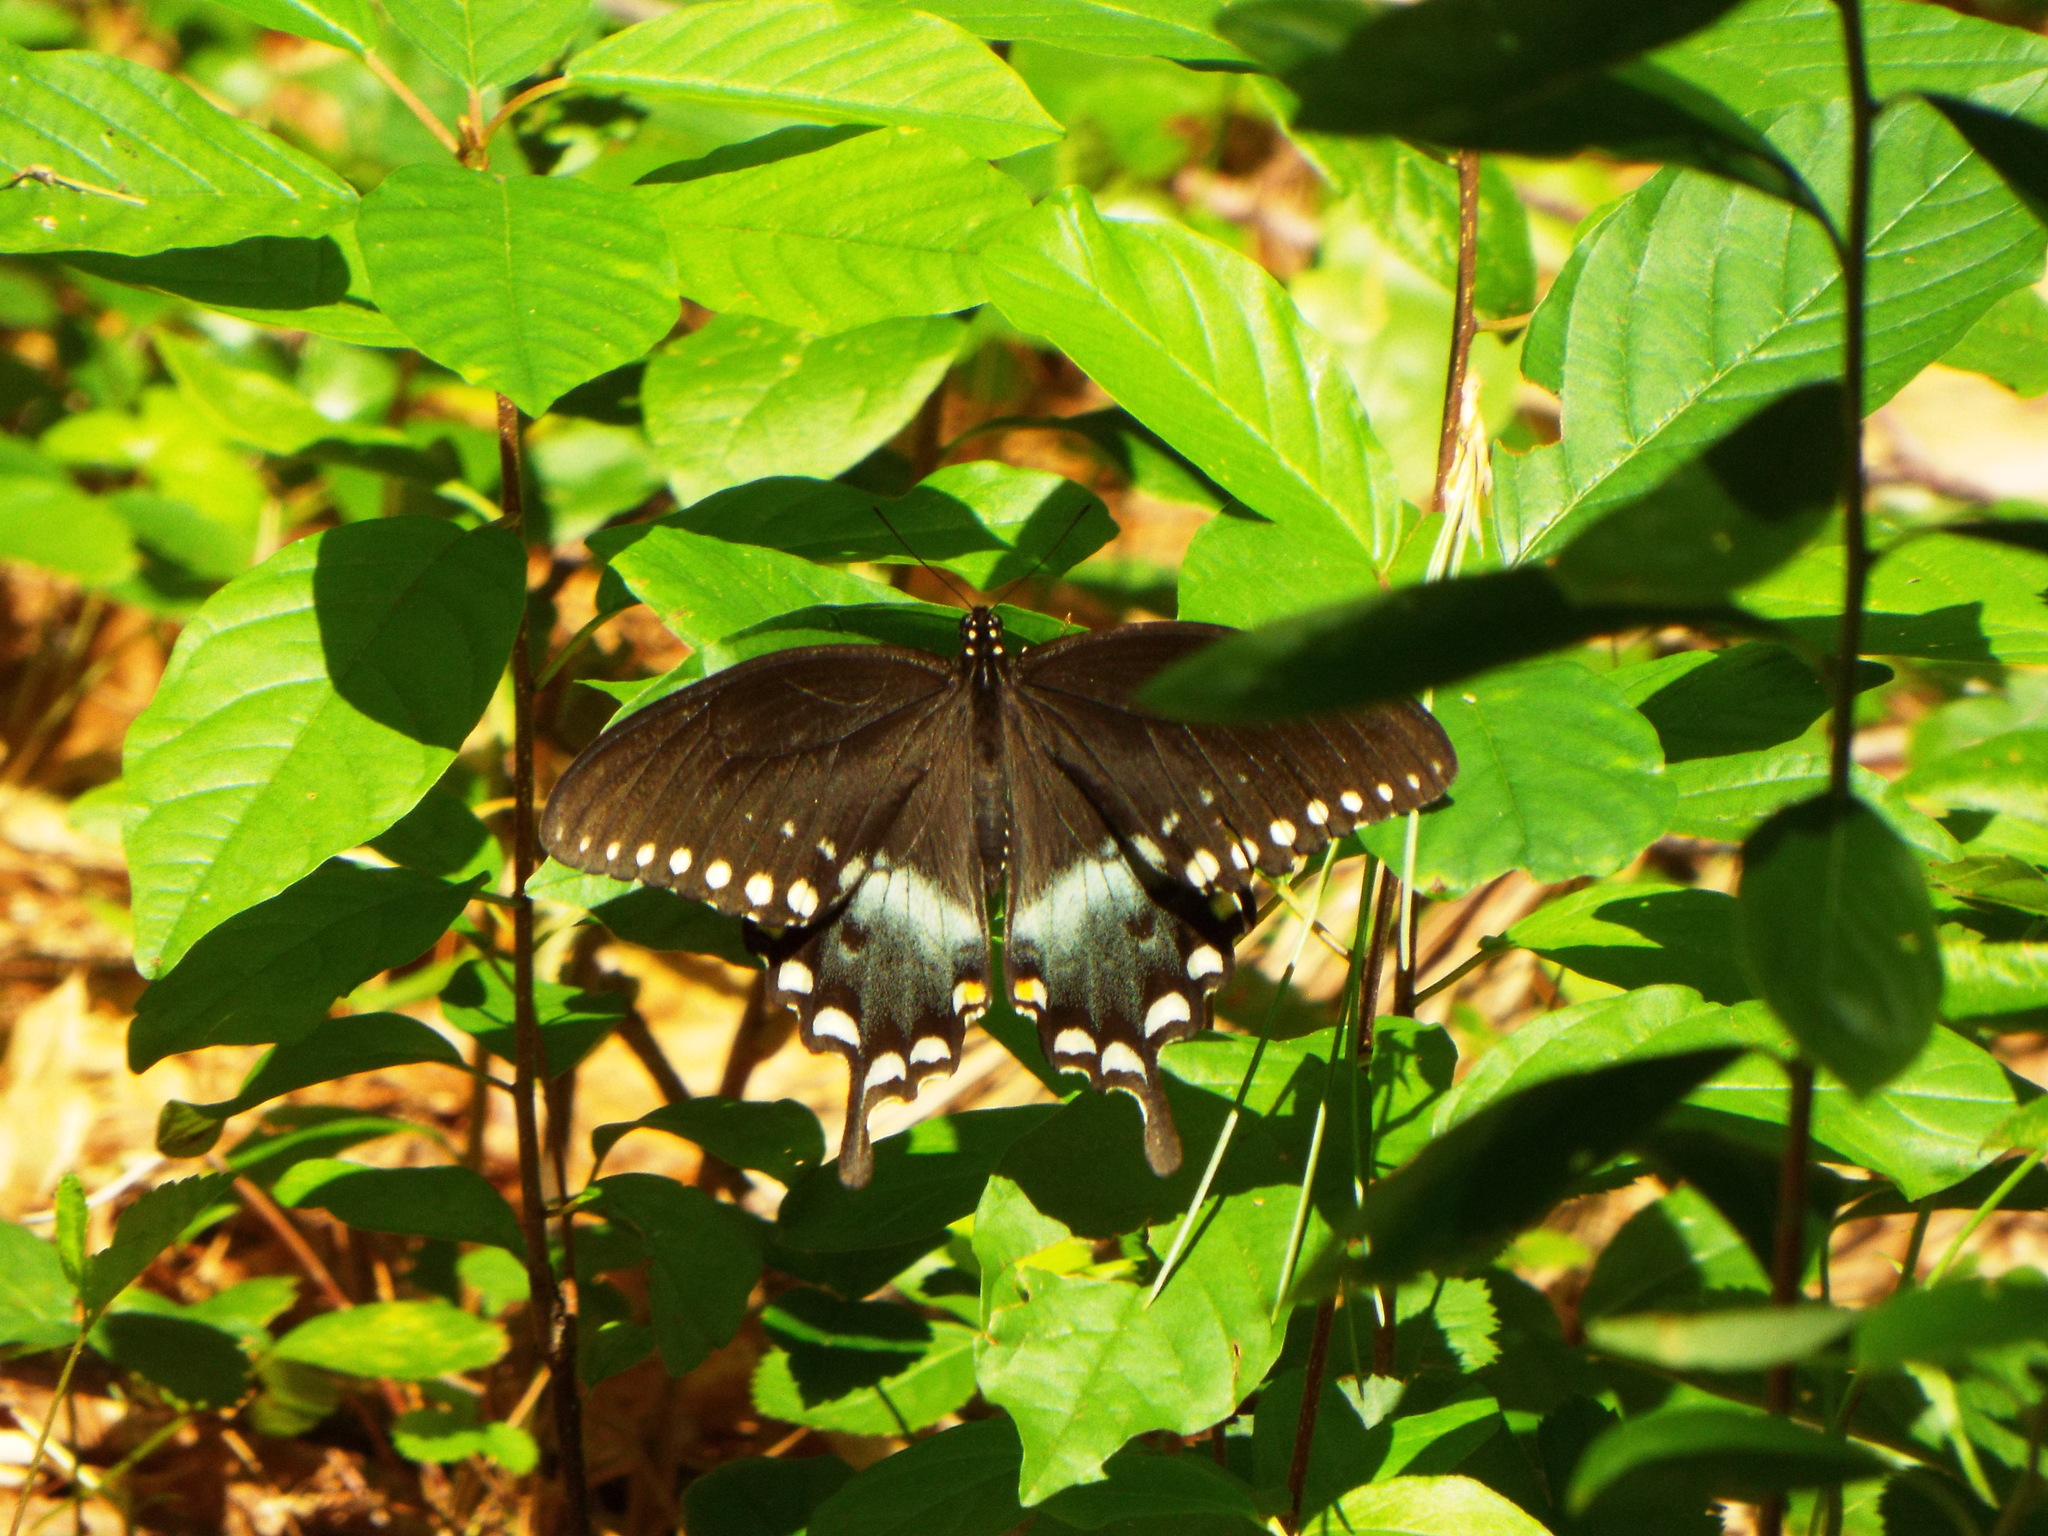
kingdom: Animalia
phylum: Arthropoda
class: Insecta
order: Lepidoptera
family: Papilionidae
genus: Papilio
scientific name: Papilio troilus
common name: Spicebush swallowtail
